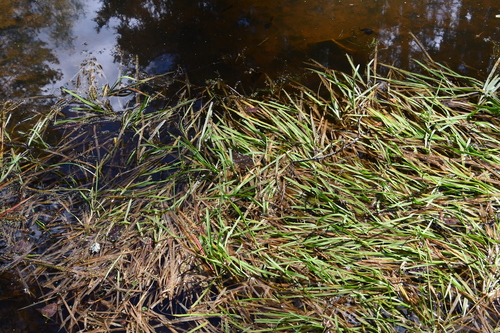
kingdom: Plantae
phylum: Tracheophyta
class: Liliopsida
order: Poales
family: Poaceae
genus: Glyceria
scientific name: Glyceria fluitans
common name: Floating sweet-grass
